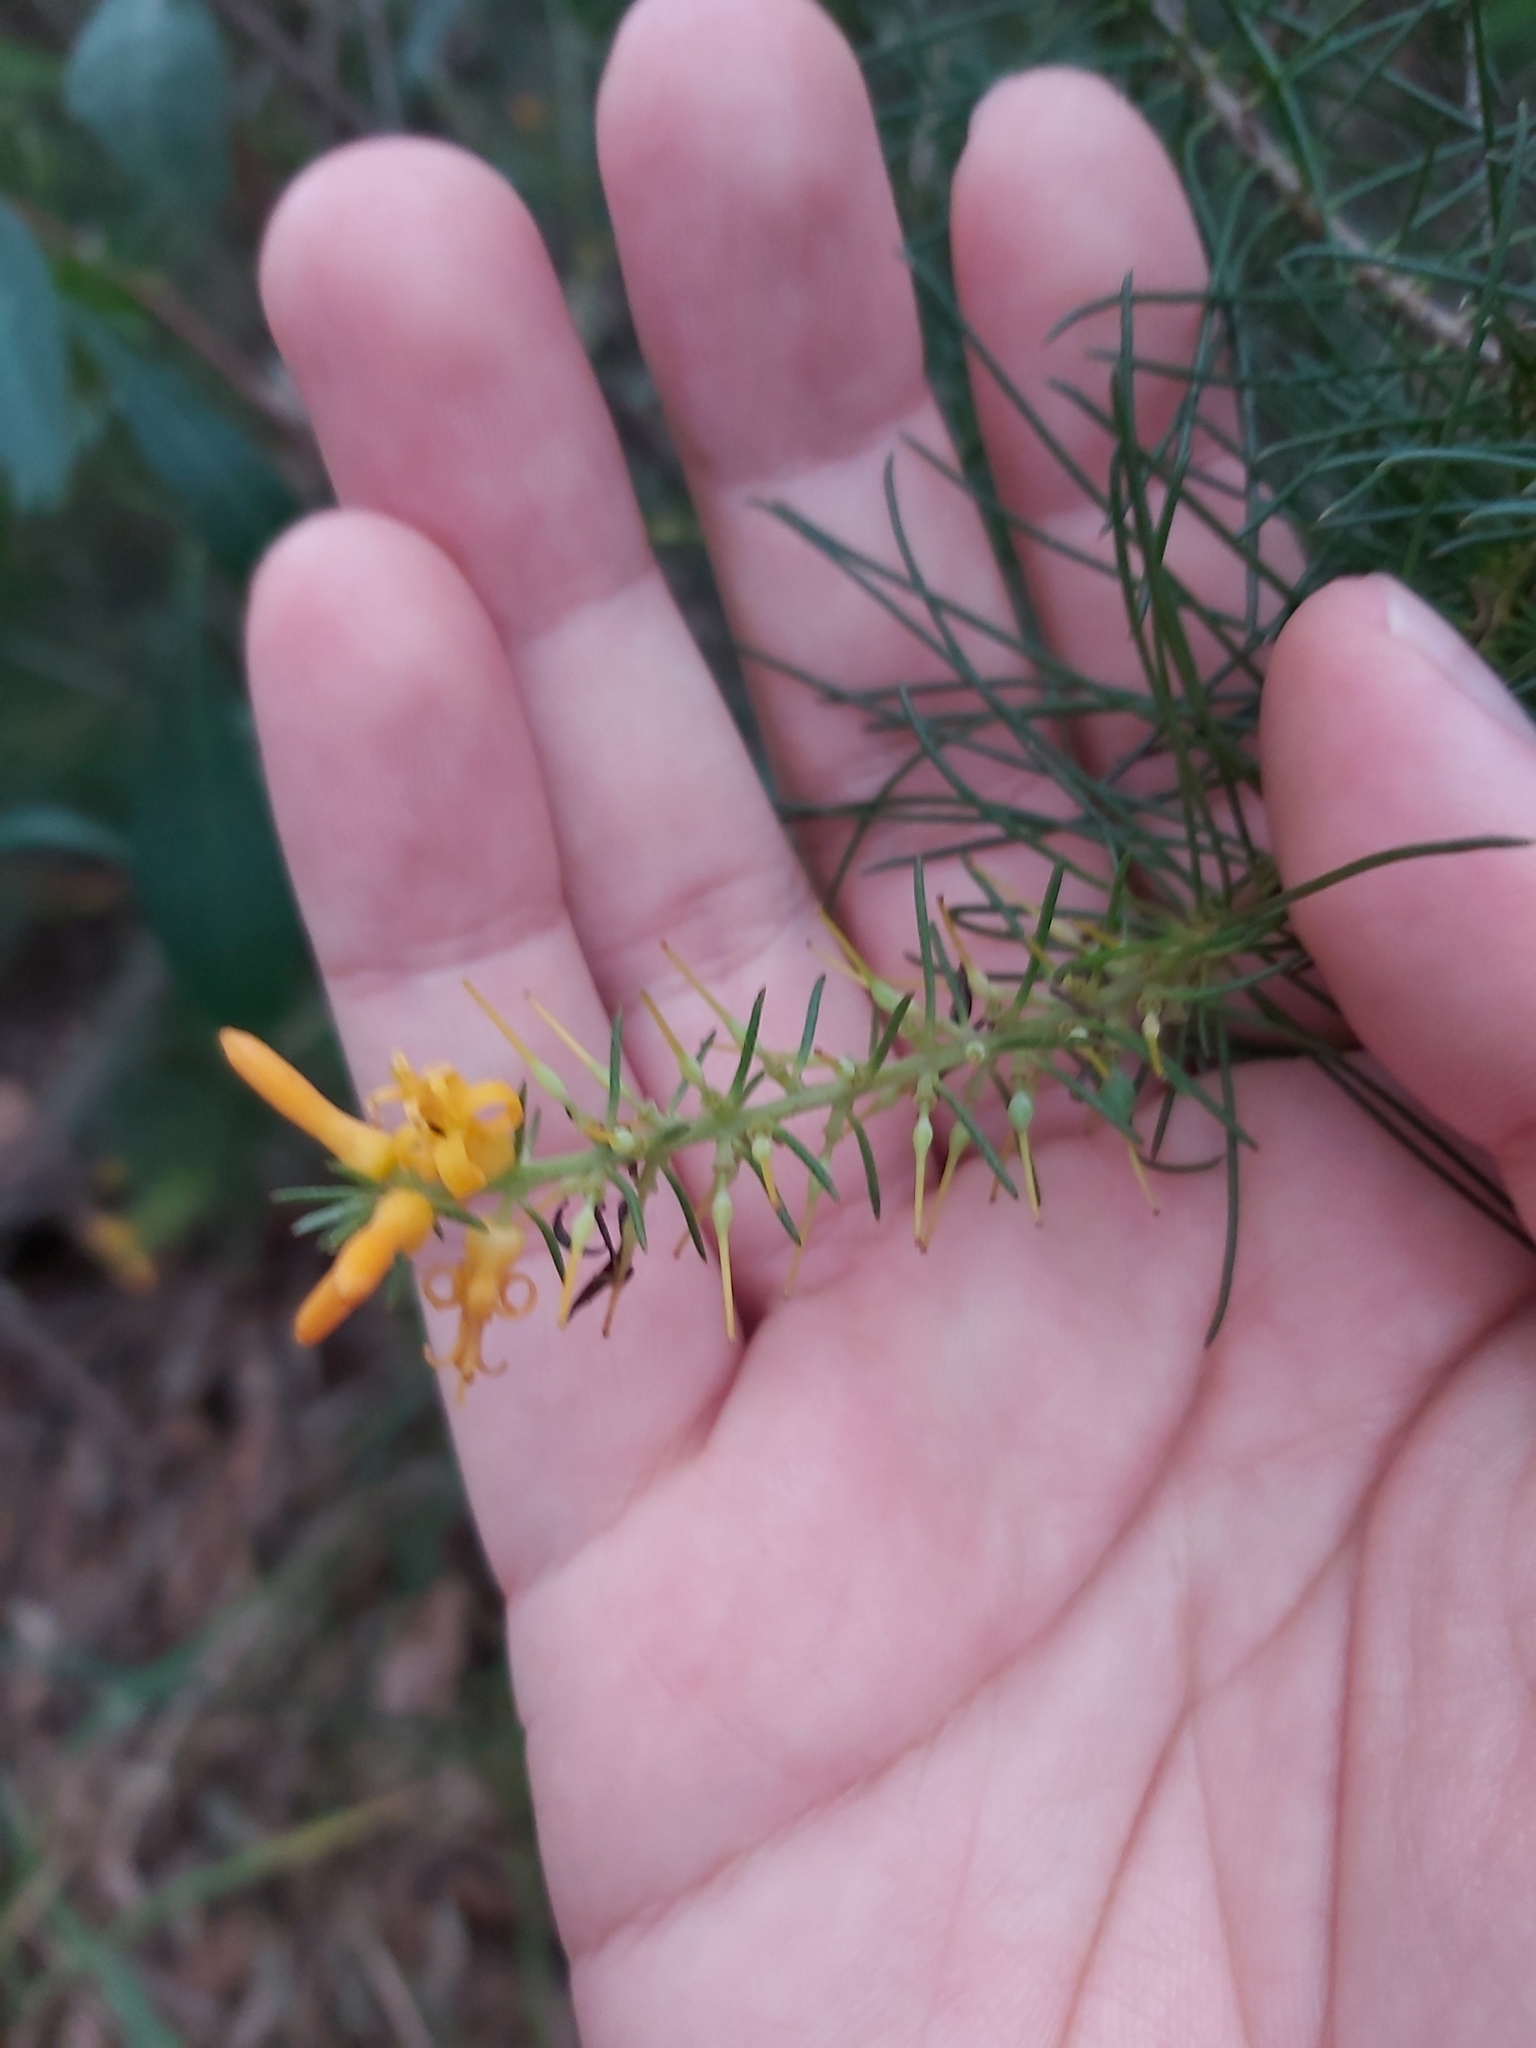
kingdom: Plantae
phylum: Tracheophyta
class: Magnoliopsida
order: Proteales
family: Proteaceae
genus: Persoonia
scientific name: Persoonia pinifolia
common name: Pine-leaf geebung
